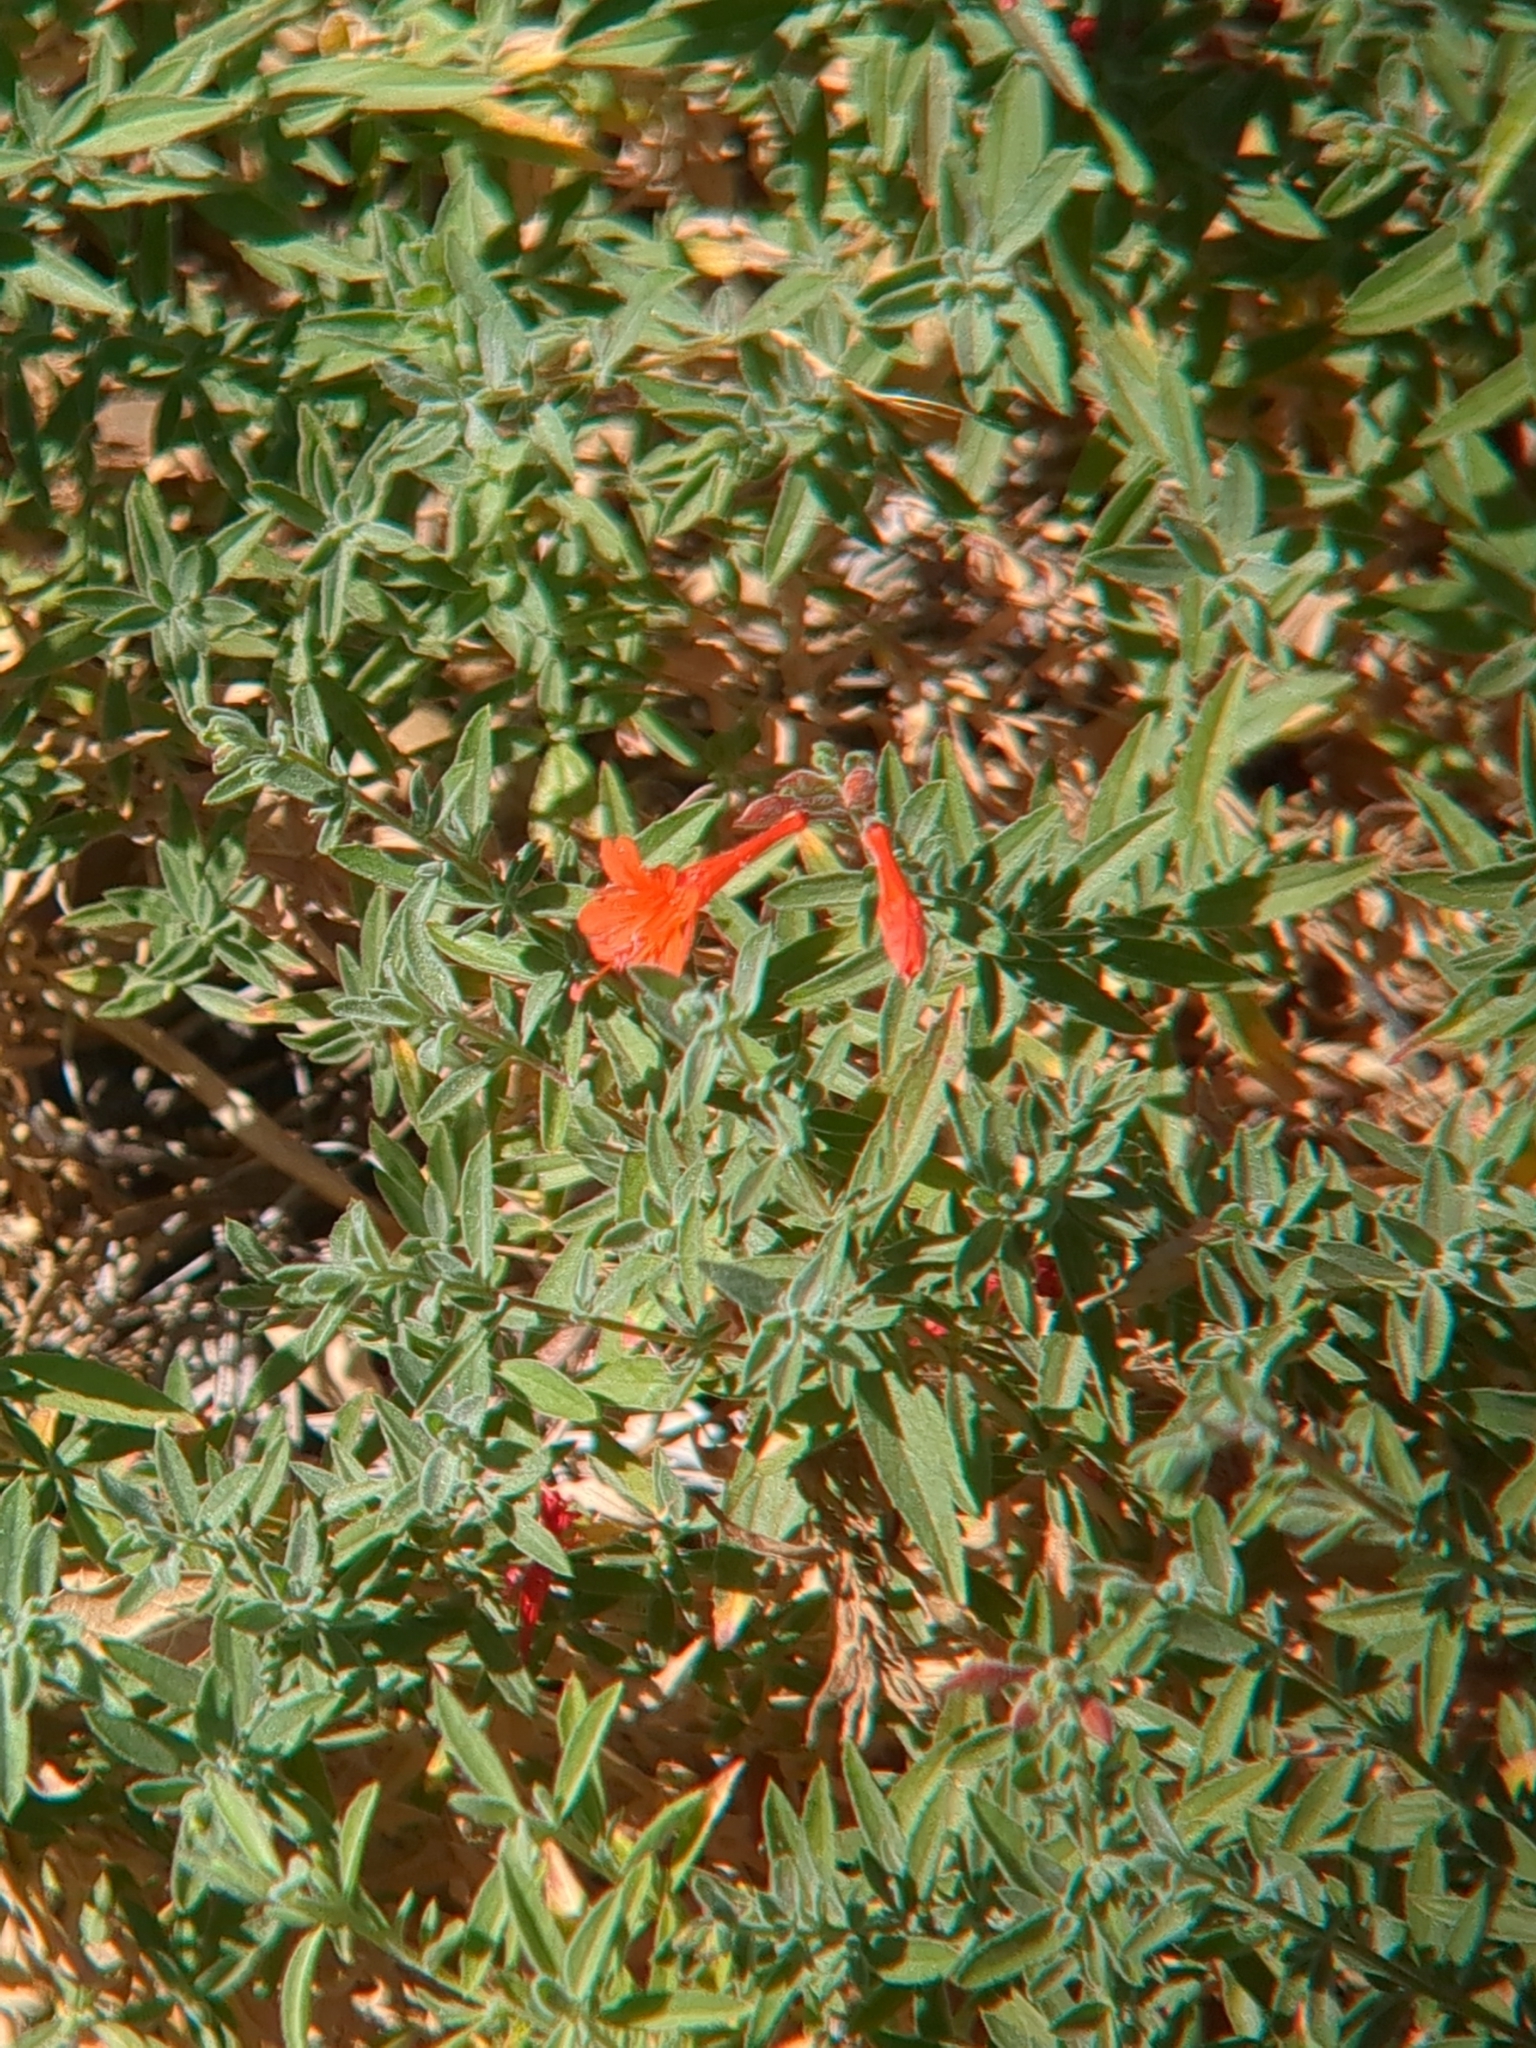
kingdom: Plantae
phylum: Tracheophyta
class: Magnoliopsida
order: Myrtales
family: Onagraceae
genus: Epilobium
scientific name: Epilobium canum
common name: California-fuchsia
